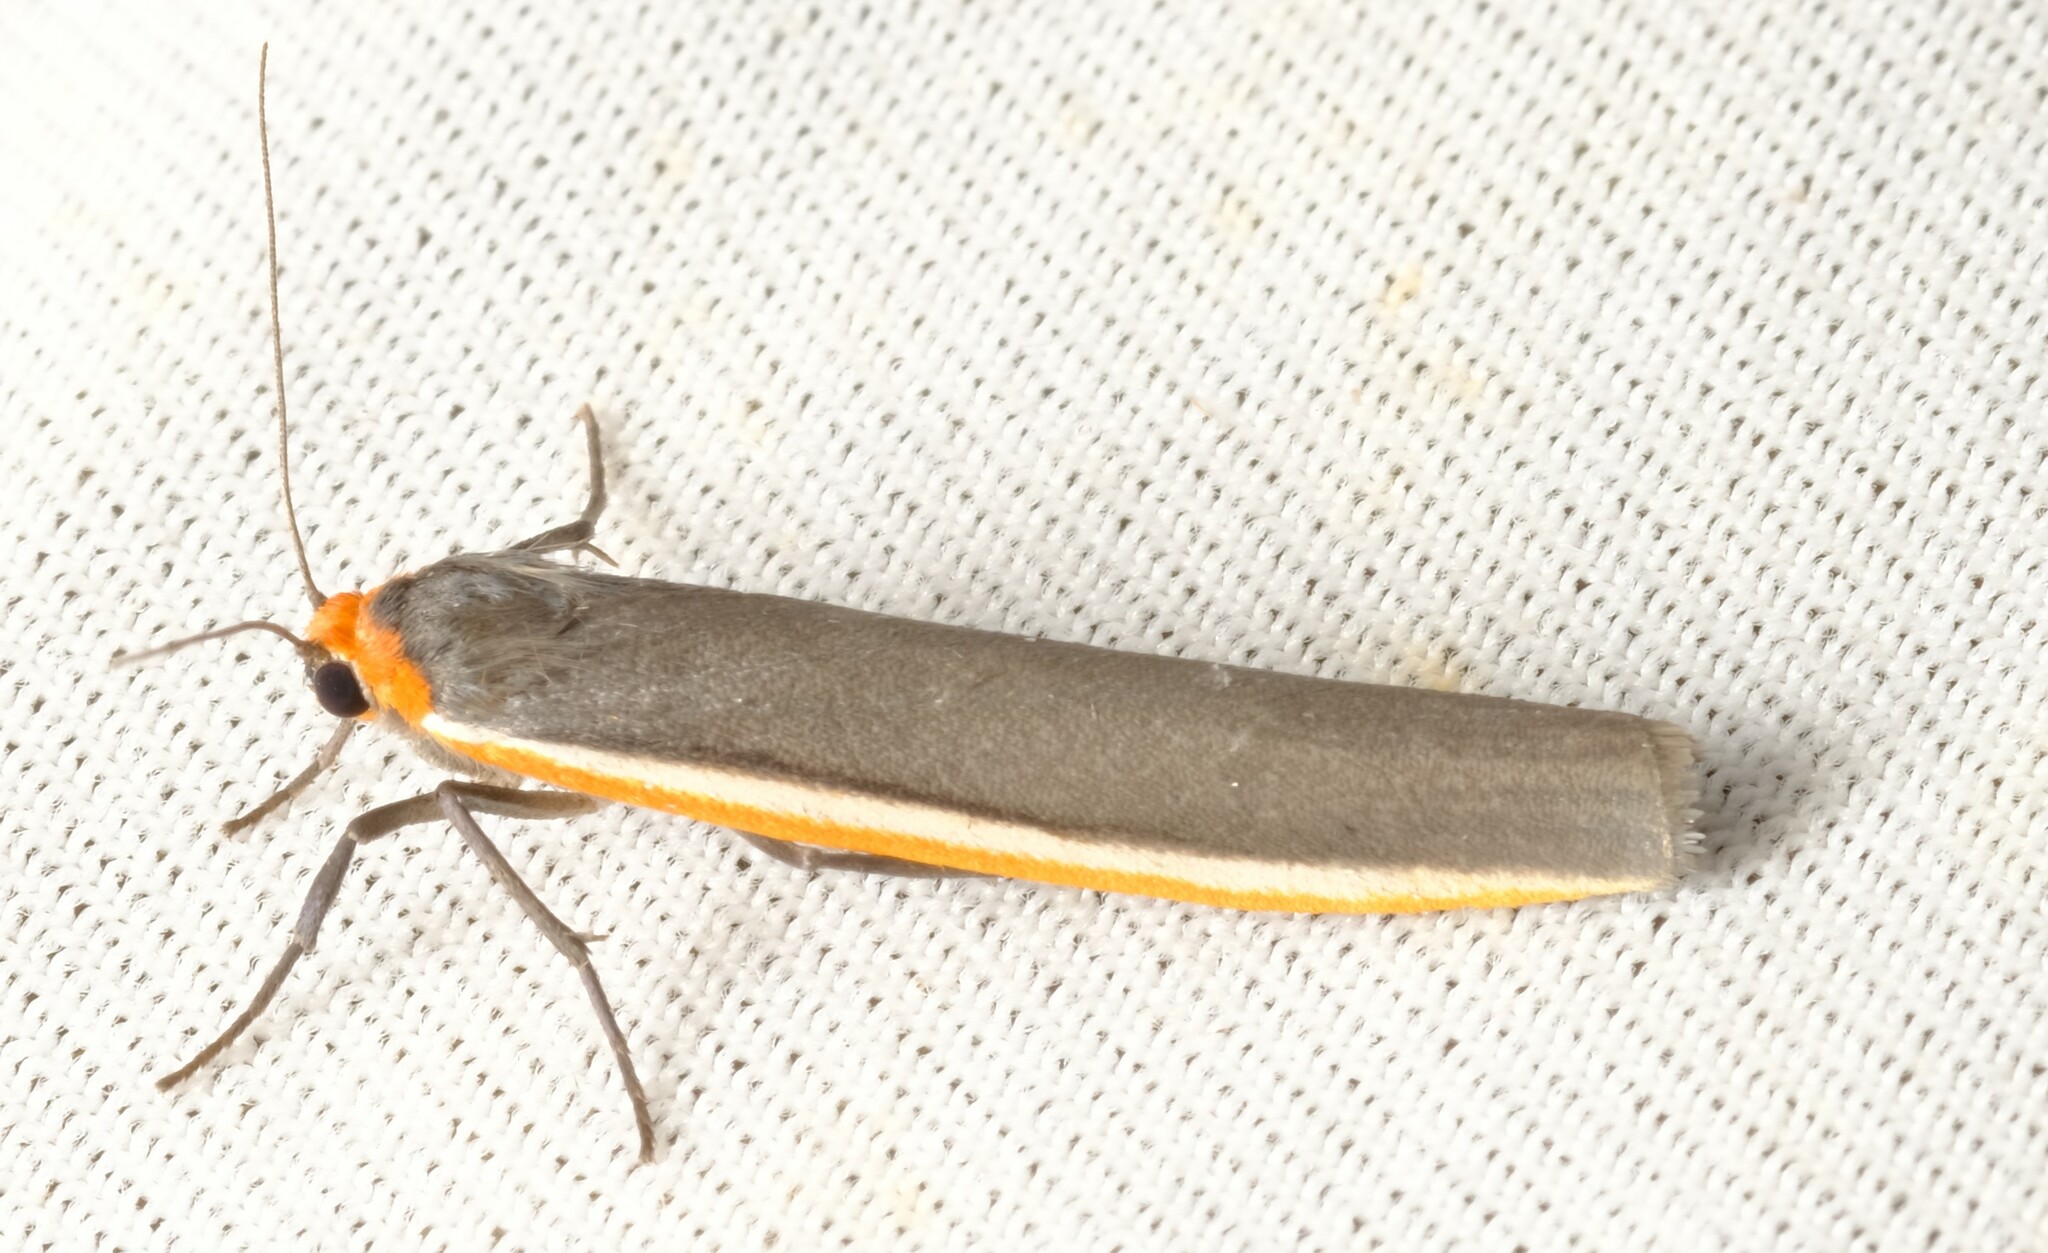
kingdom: Animalia
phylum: Arthropoda
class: Insecta
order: Lepidoptera
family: Erebidae
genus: Palaeosia
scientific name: Palaeosia bicosta
